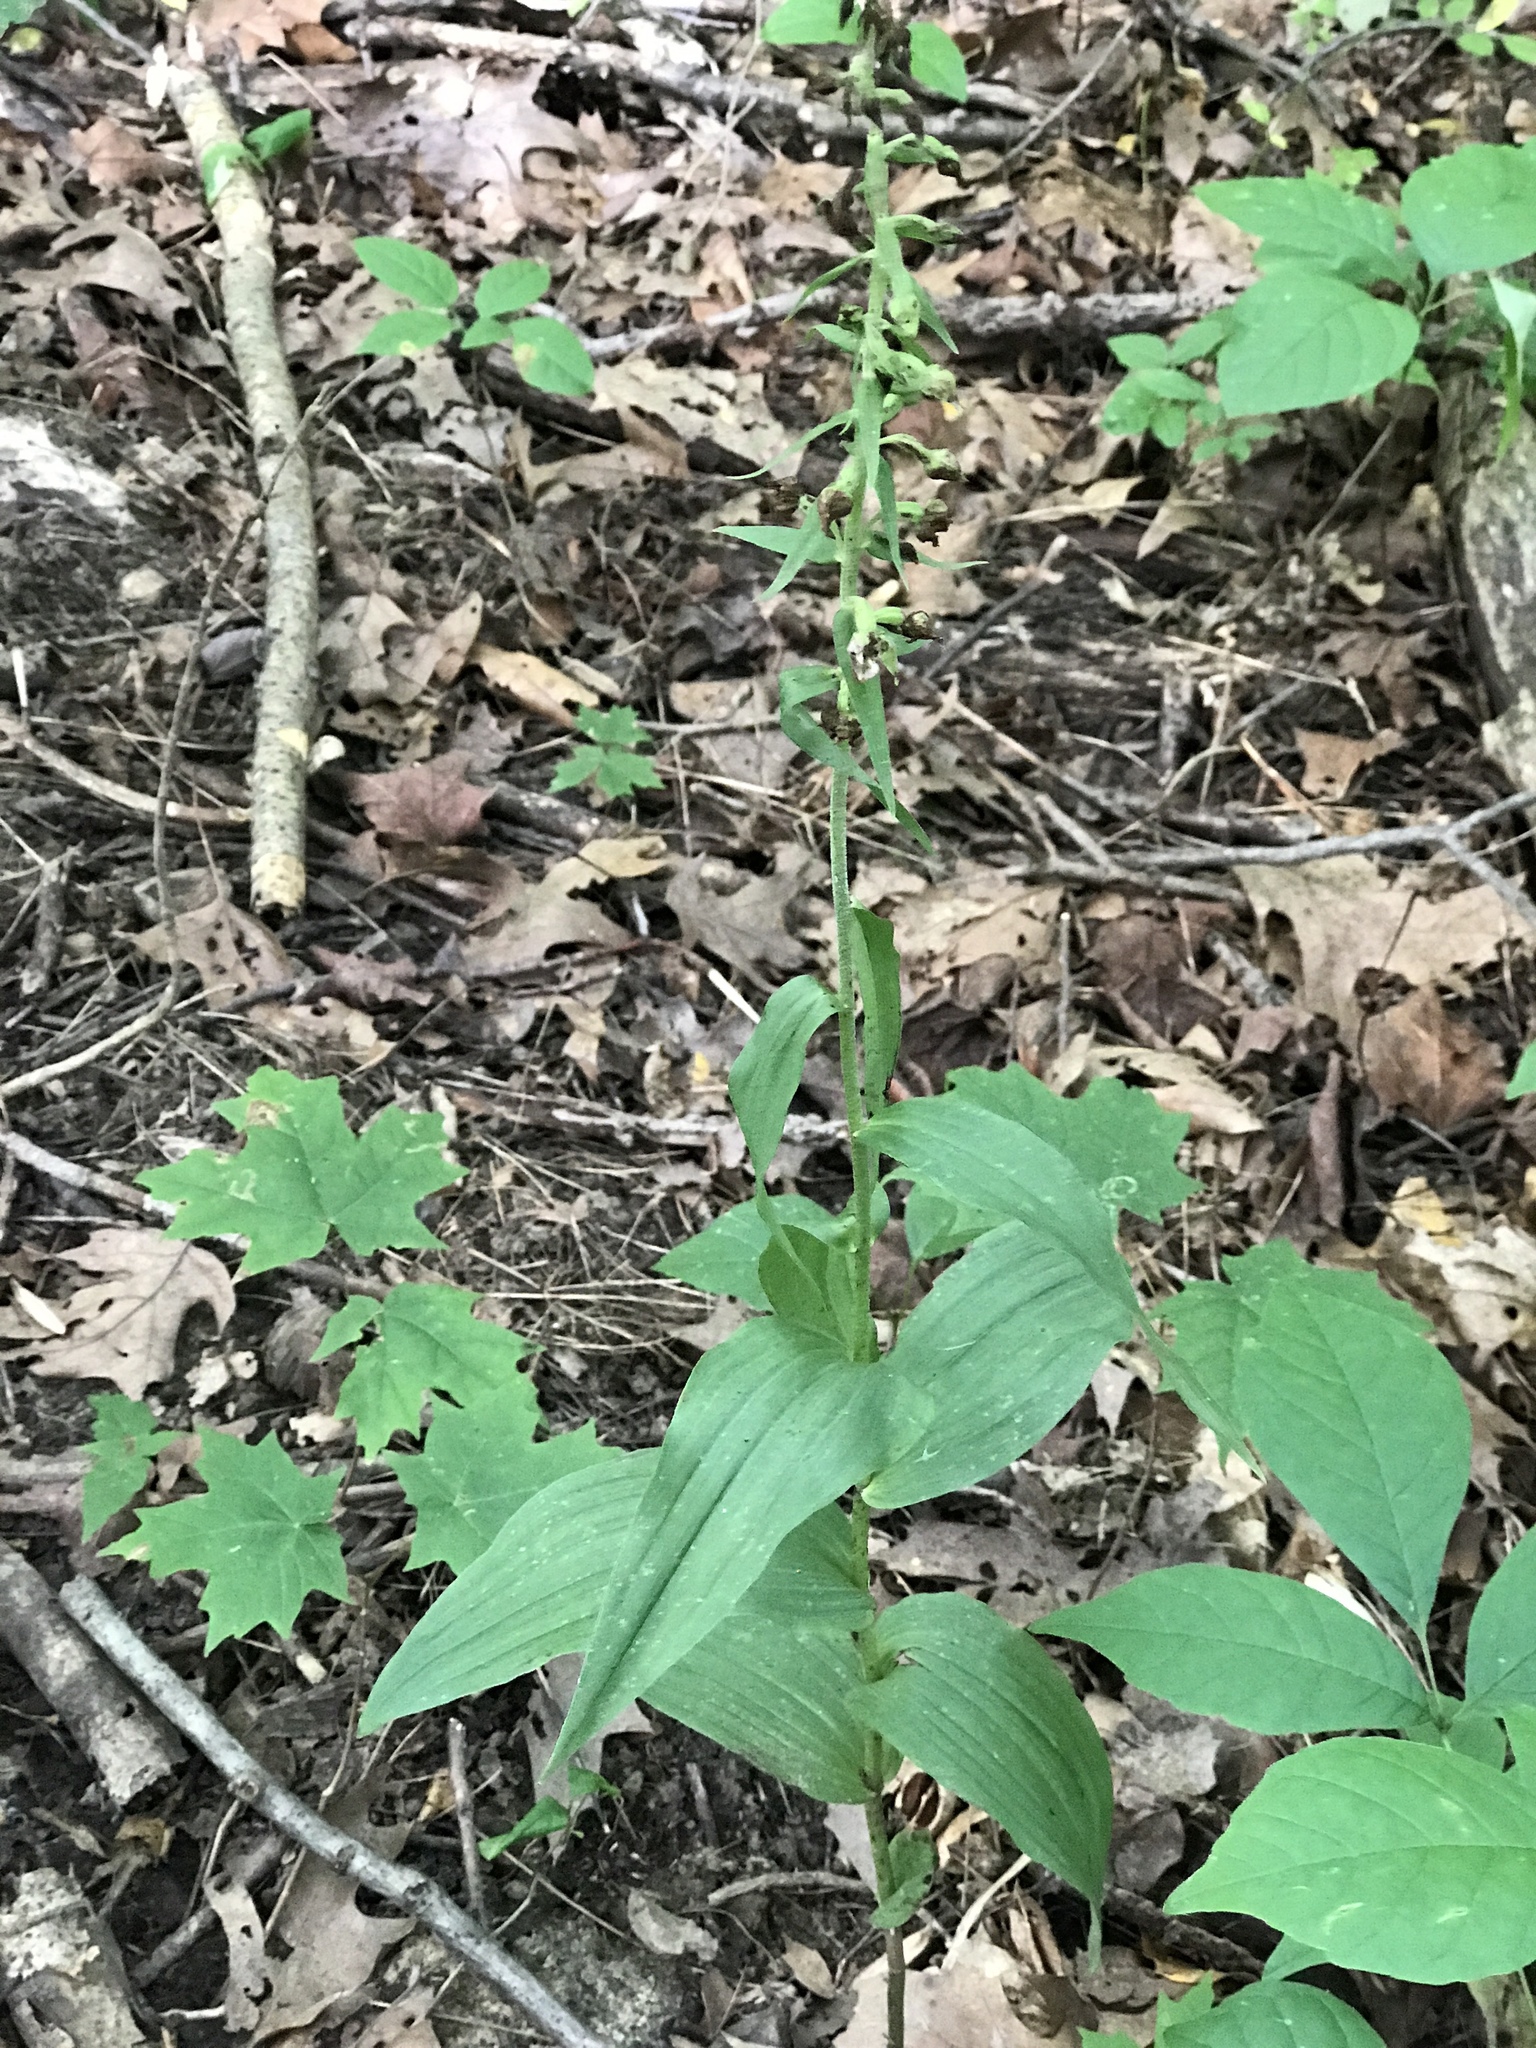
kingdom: Plantae
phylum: Tracheophyta
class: Liliopsida
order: Asparagales
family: Orchidaceae
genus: Epipactis
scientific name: Epipactis helleborine
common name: Broad-leaved helleborine
